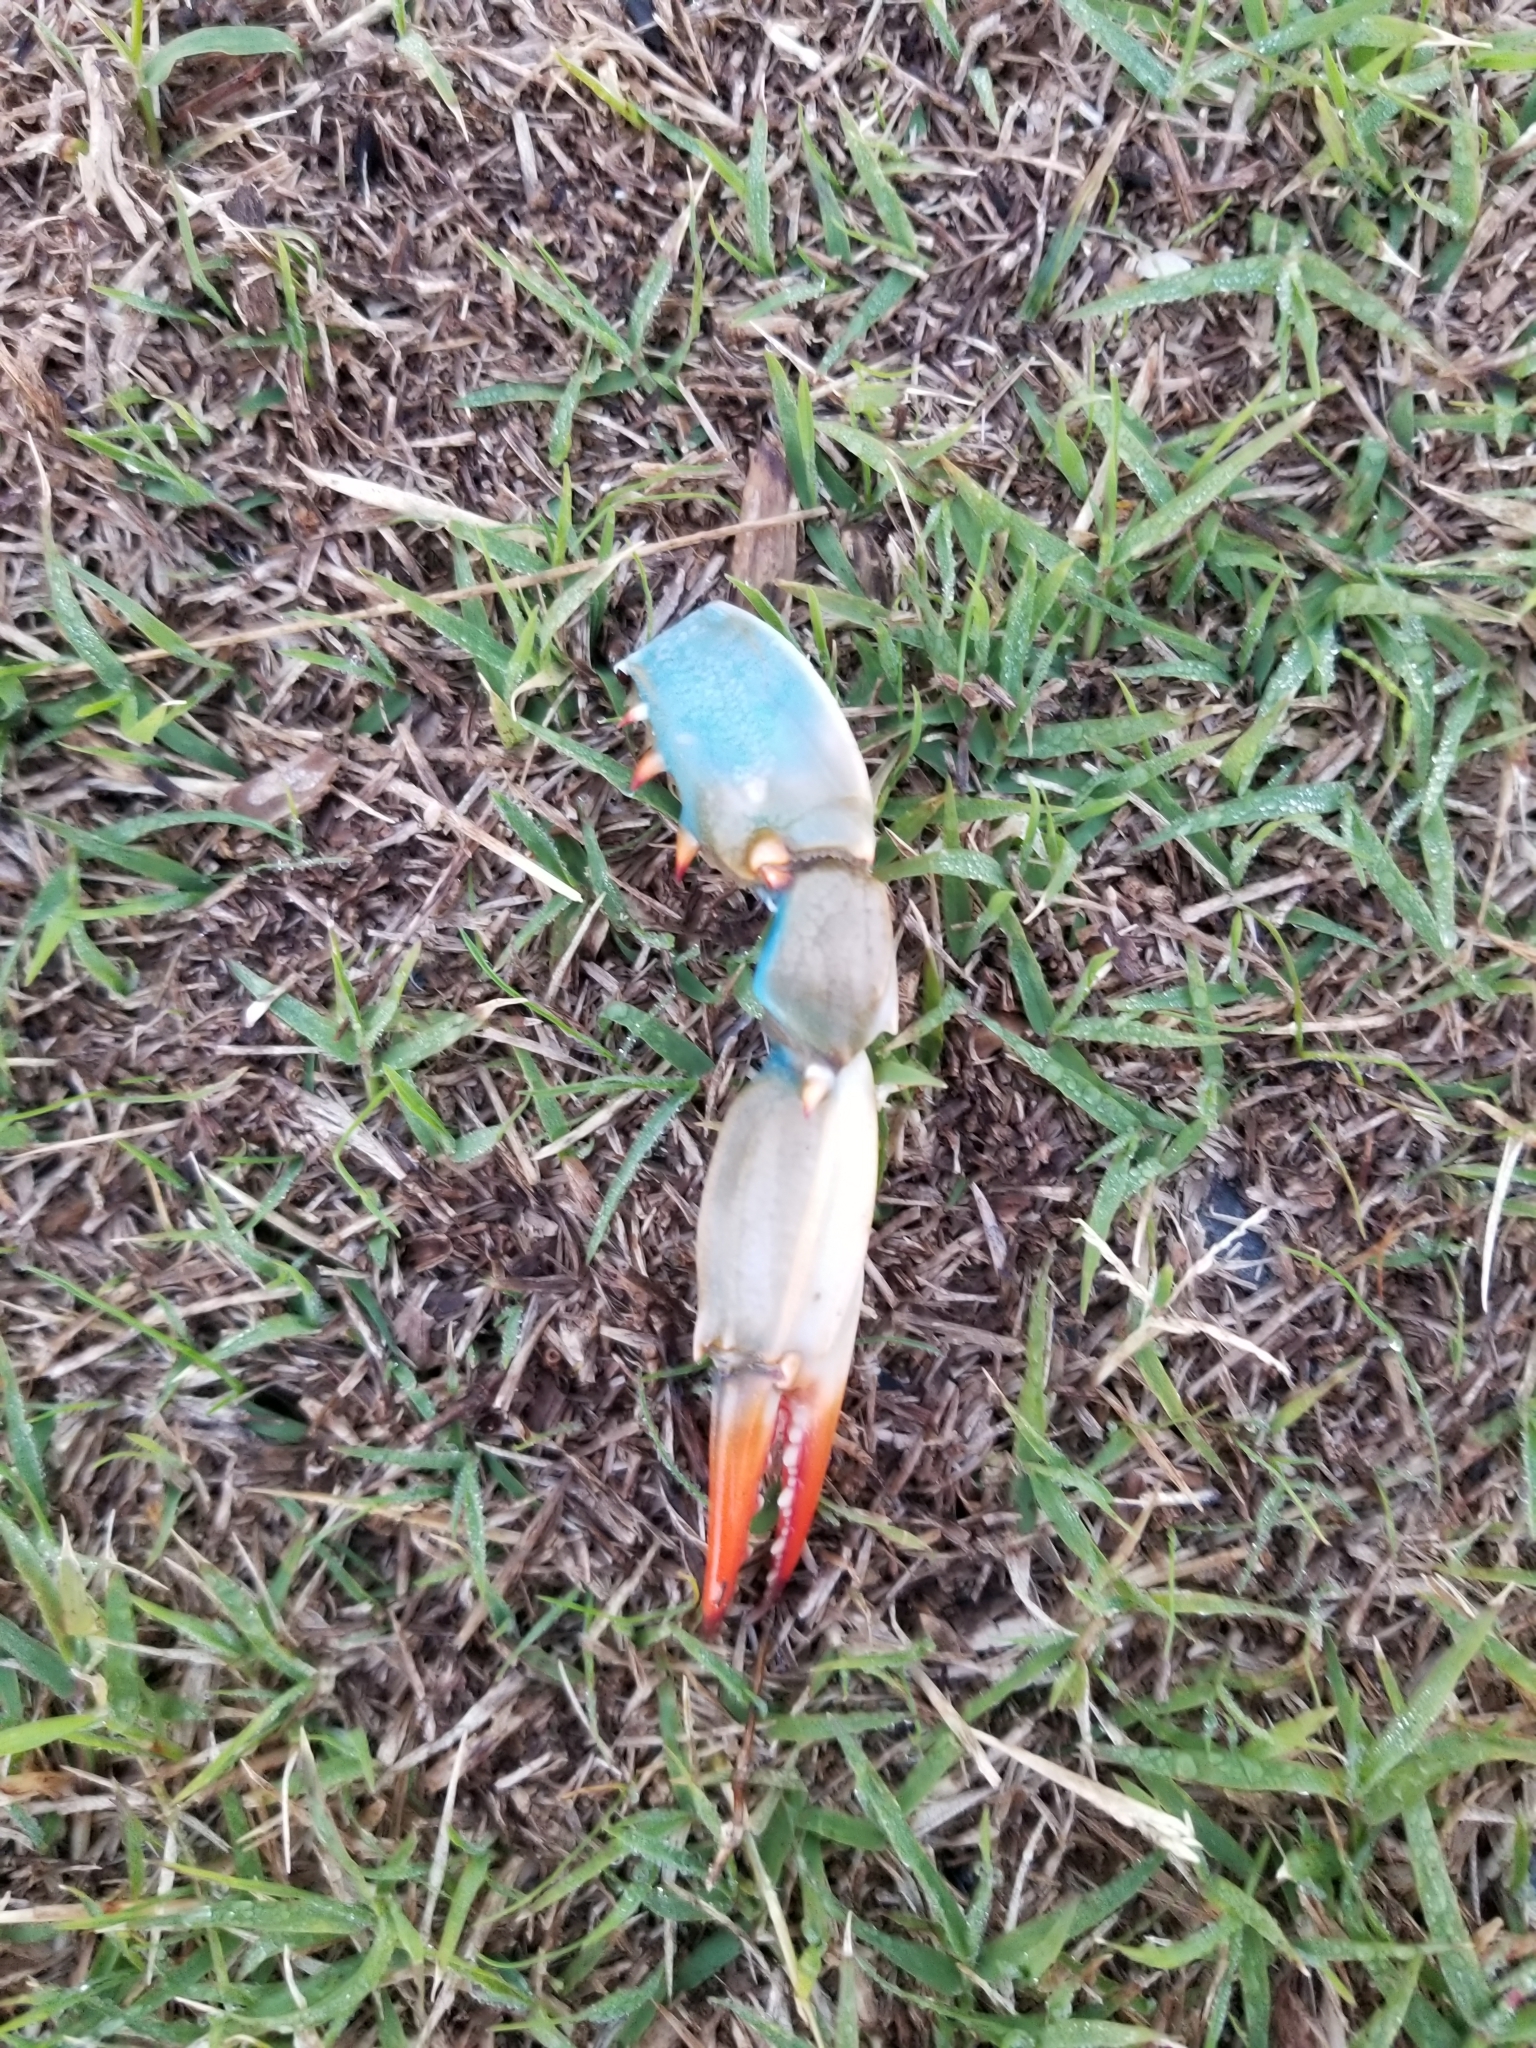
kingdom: Animalia
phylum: Arthropoda
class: Malacostraca
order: Decapoda
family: Portunidae
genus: Callinectes
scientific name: Callinectes sapidus
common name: Blue crab
